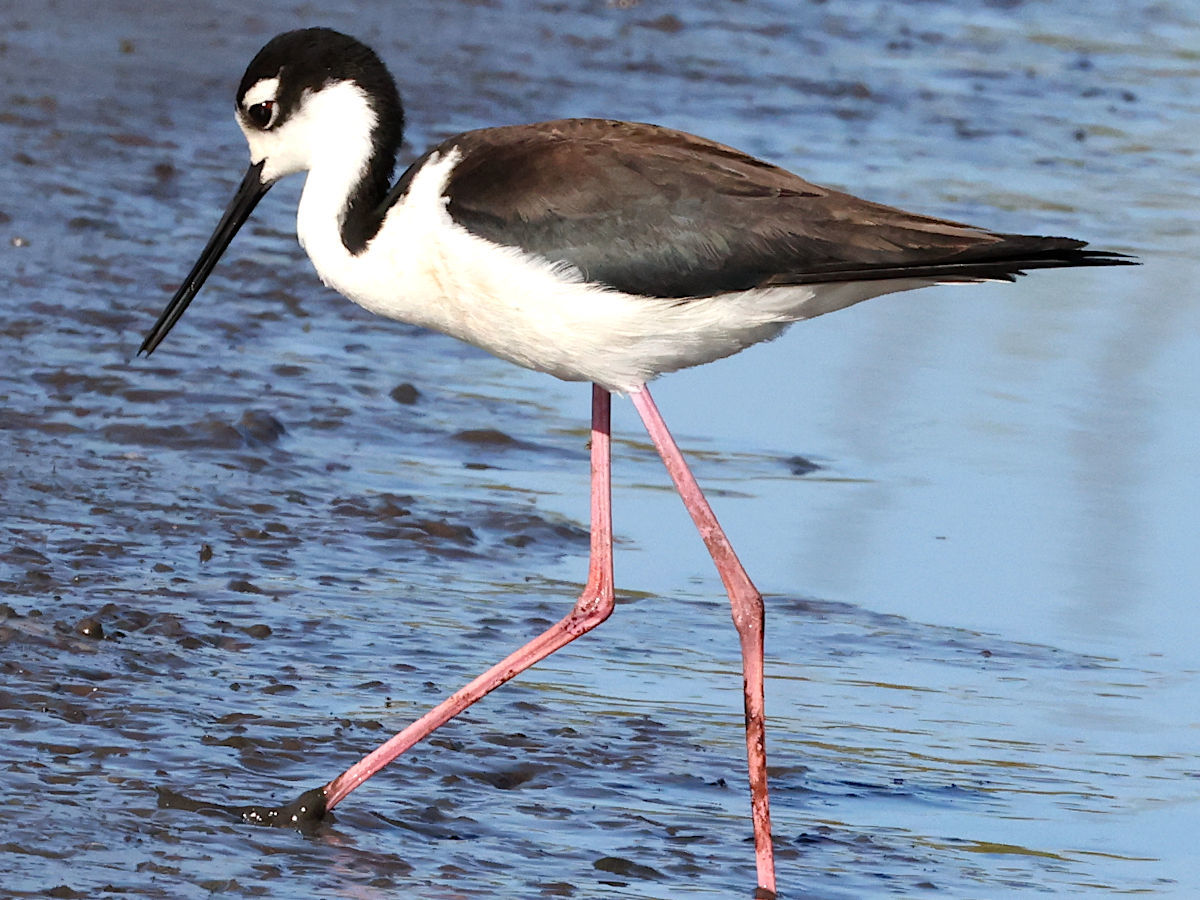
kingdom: Animalia
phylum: Chordata
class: Aves
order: Charadriiformes
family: Recurvirostridae
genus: Himantopus
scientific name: Himantopus mexicanus
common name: Black-necked stilt
